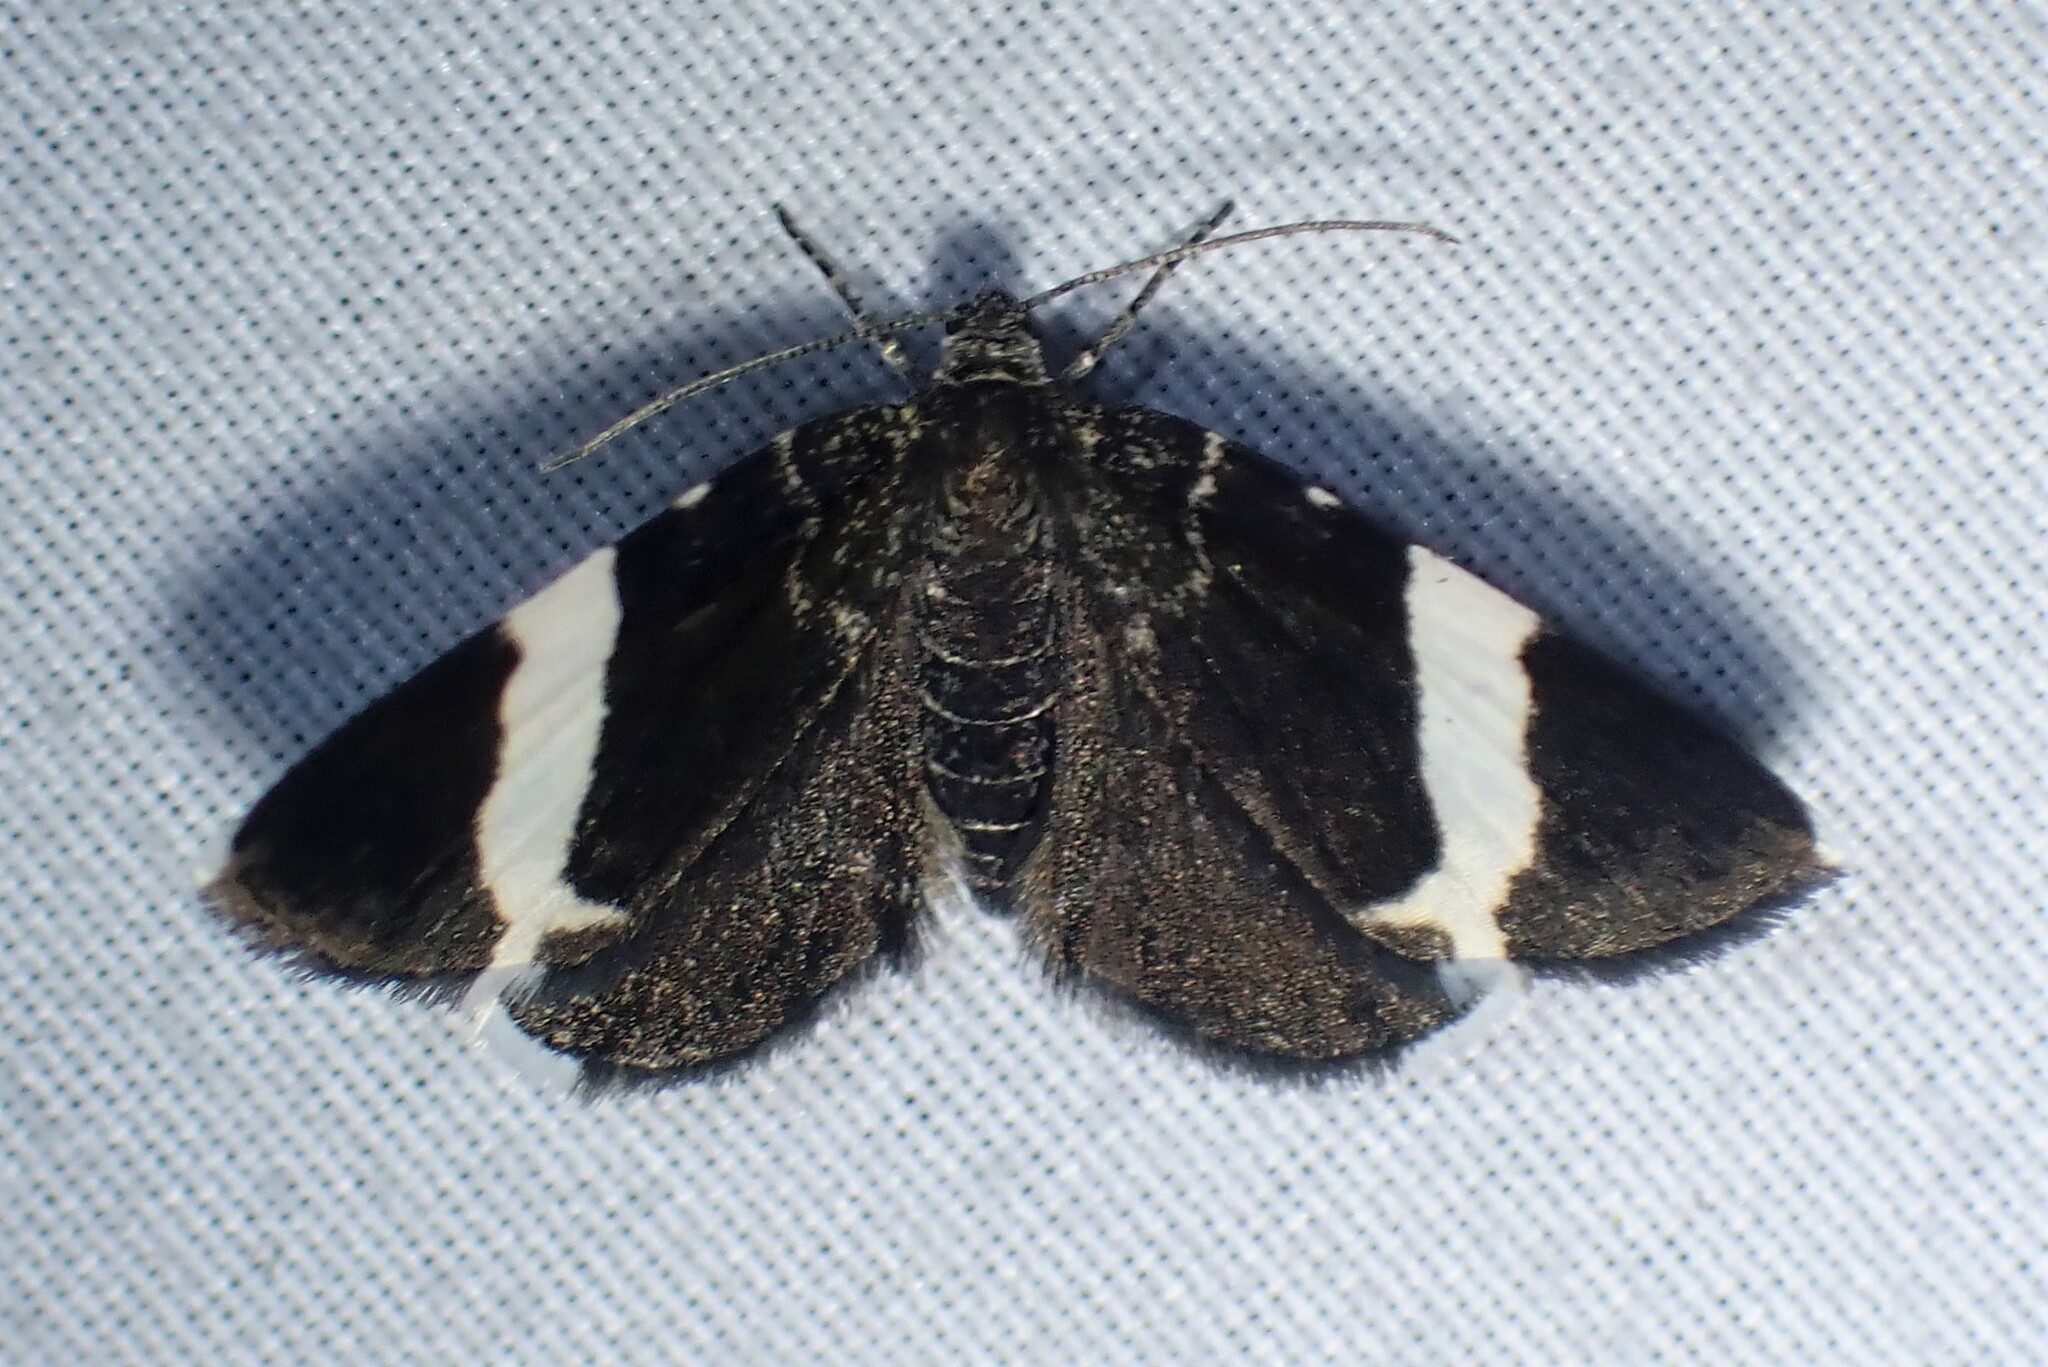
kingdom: Animalia
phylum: Arthropoda
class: Insecta
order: Lepidoptera
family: Geometridae
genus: Trichodezia
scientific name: Trichodezia albovittata
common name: White striped black
